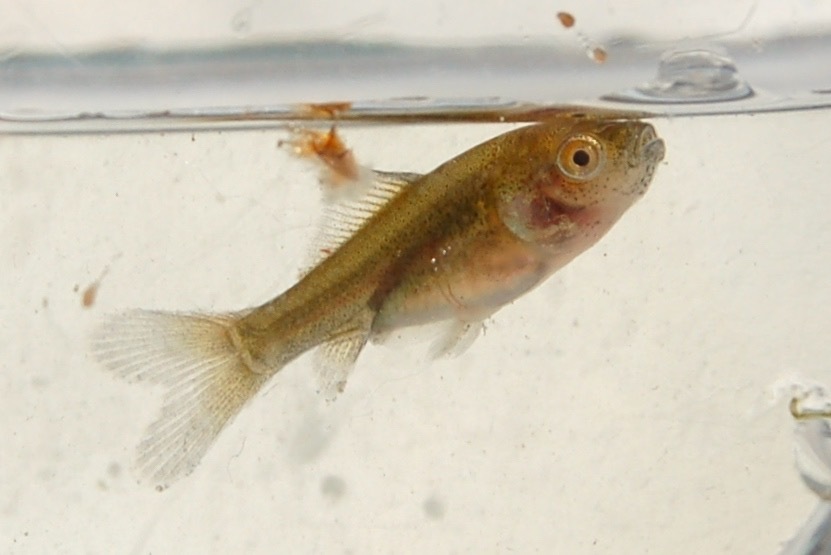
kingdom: Animalia
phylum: Chordata
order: Cypriniformes
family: Cyprinidae
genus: Carassius
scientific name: Carassius auratus
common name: Goldfish
